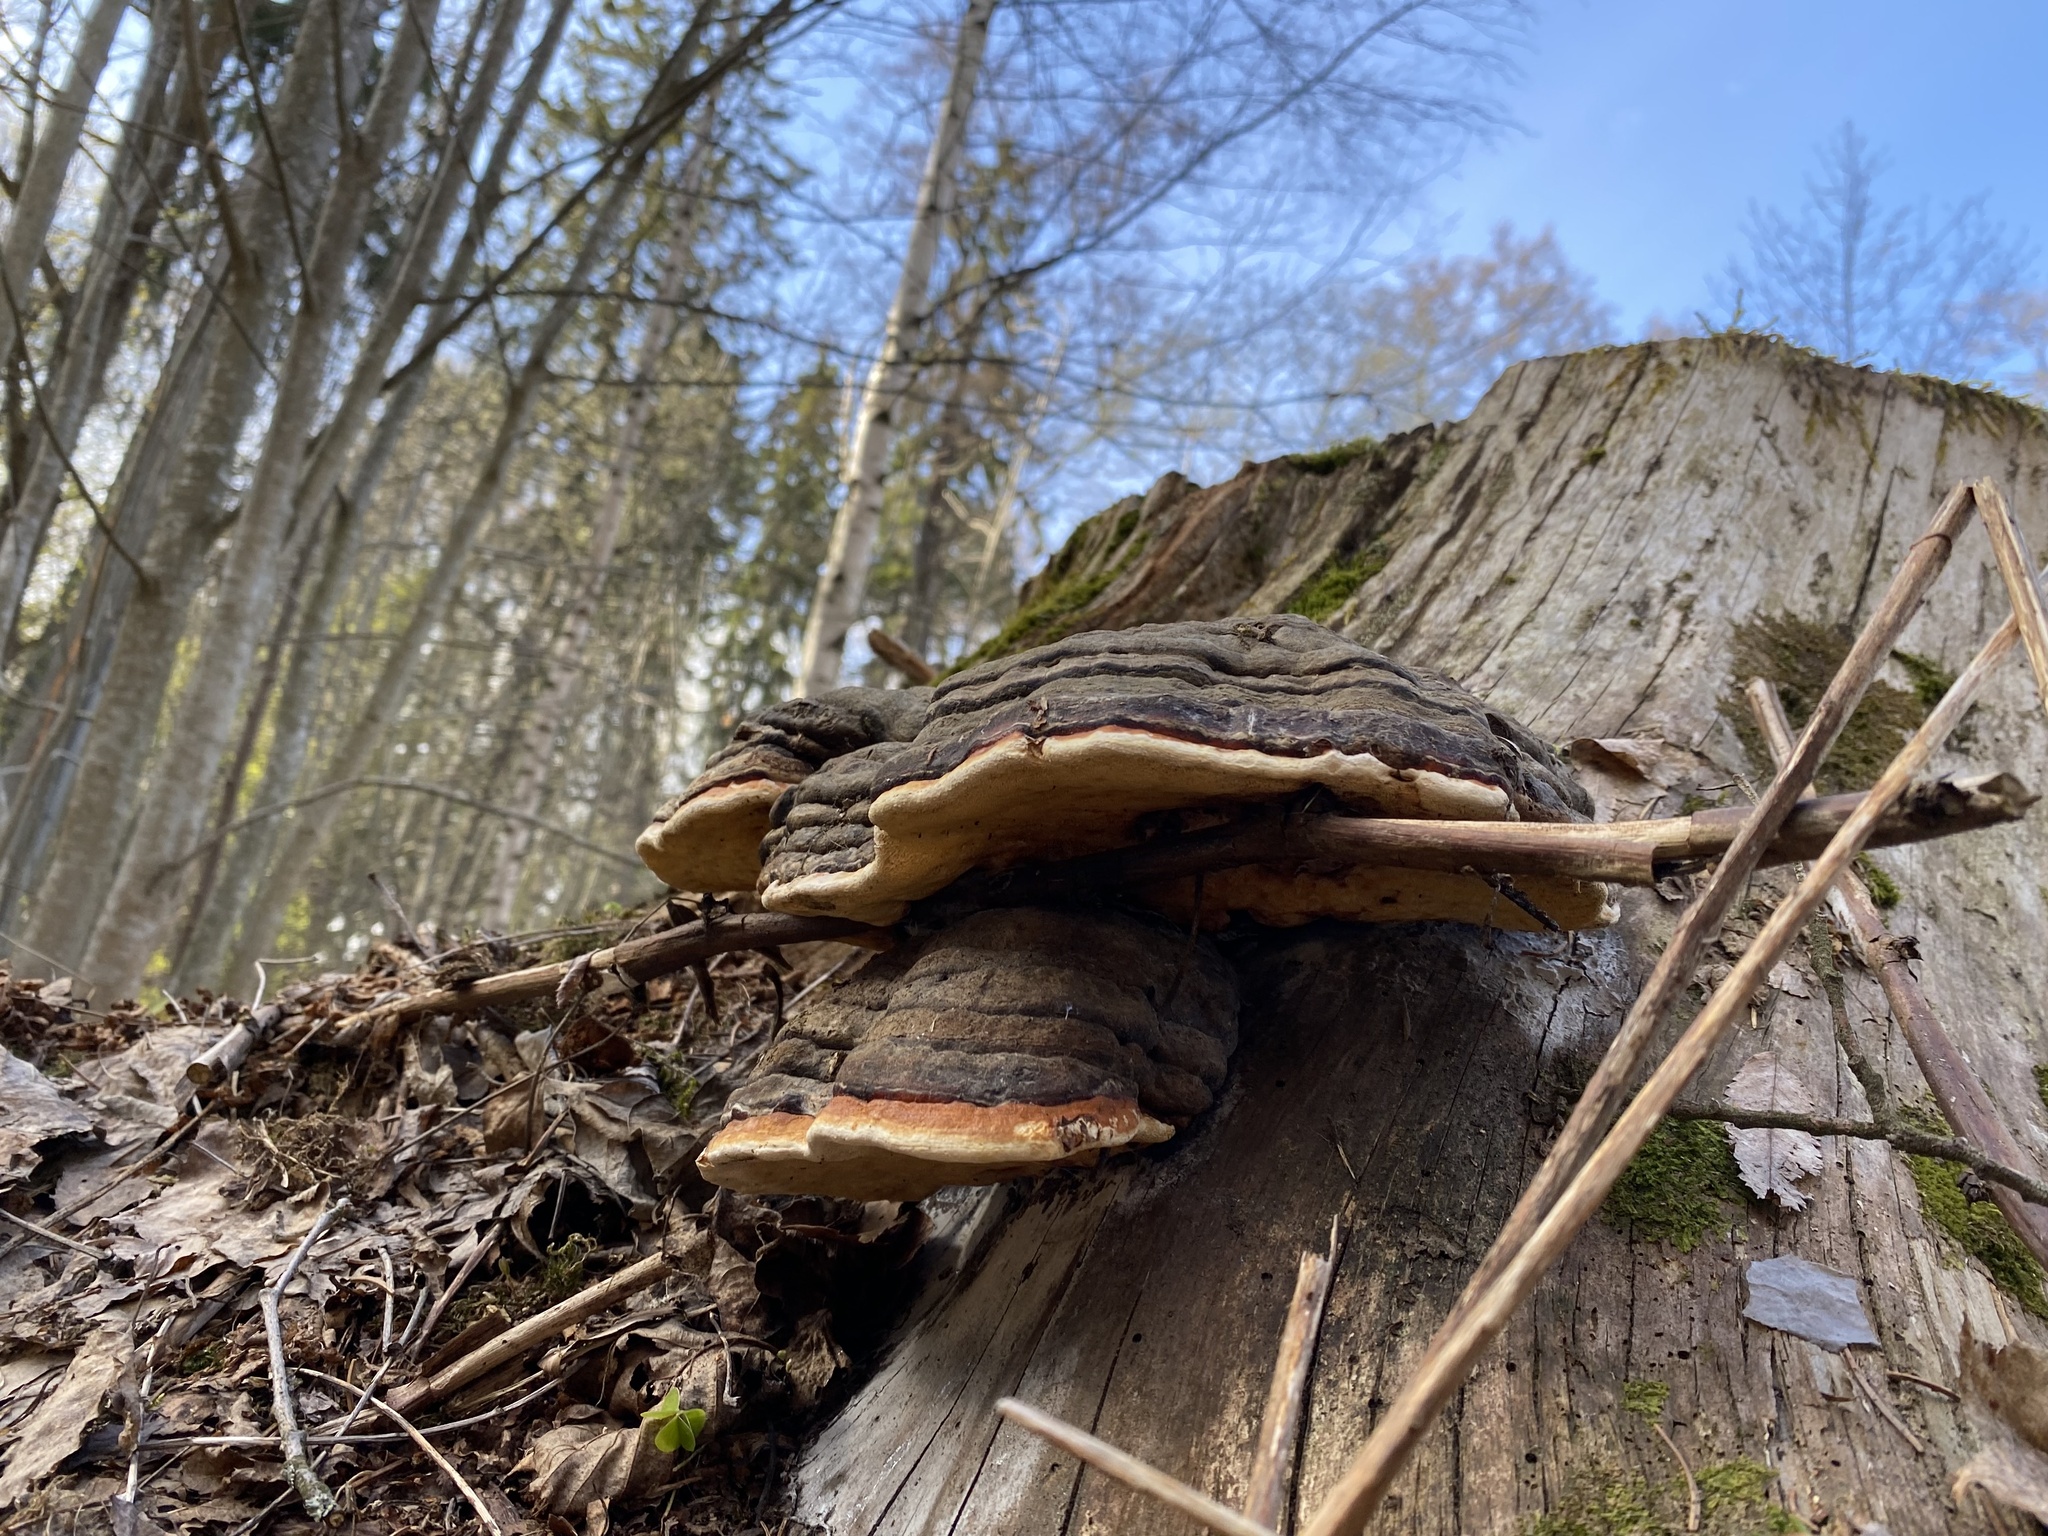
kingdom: Fungi
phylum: Basidiomycota
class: Agaricomycetes
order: Polyporales
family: Fomitopsidaceae
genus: Fomitopsis
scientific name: Fomitopsis pinicola
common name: Red-belted bracket
